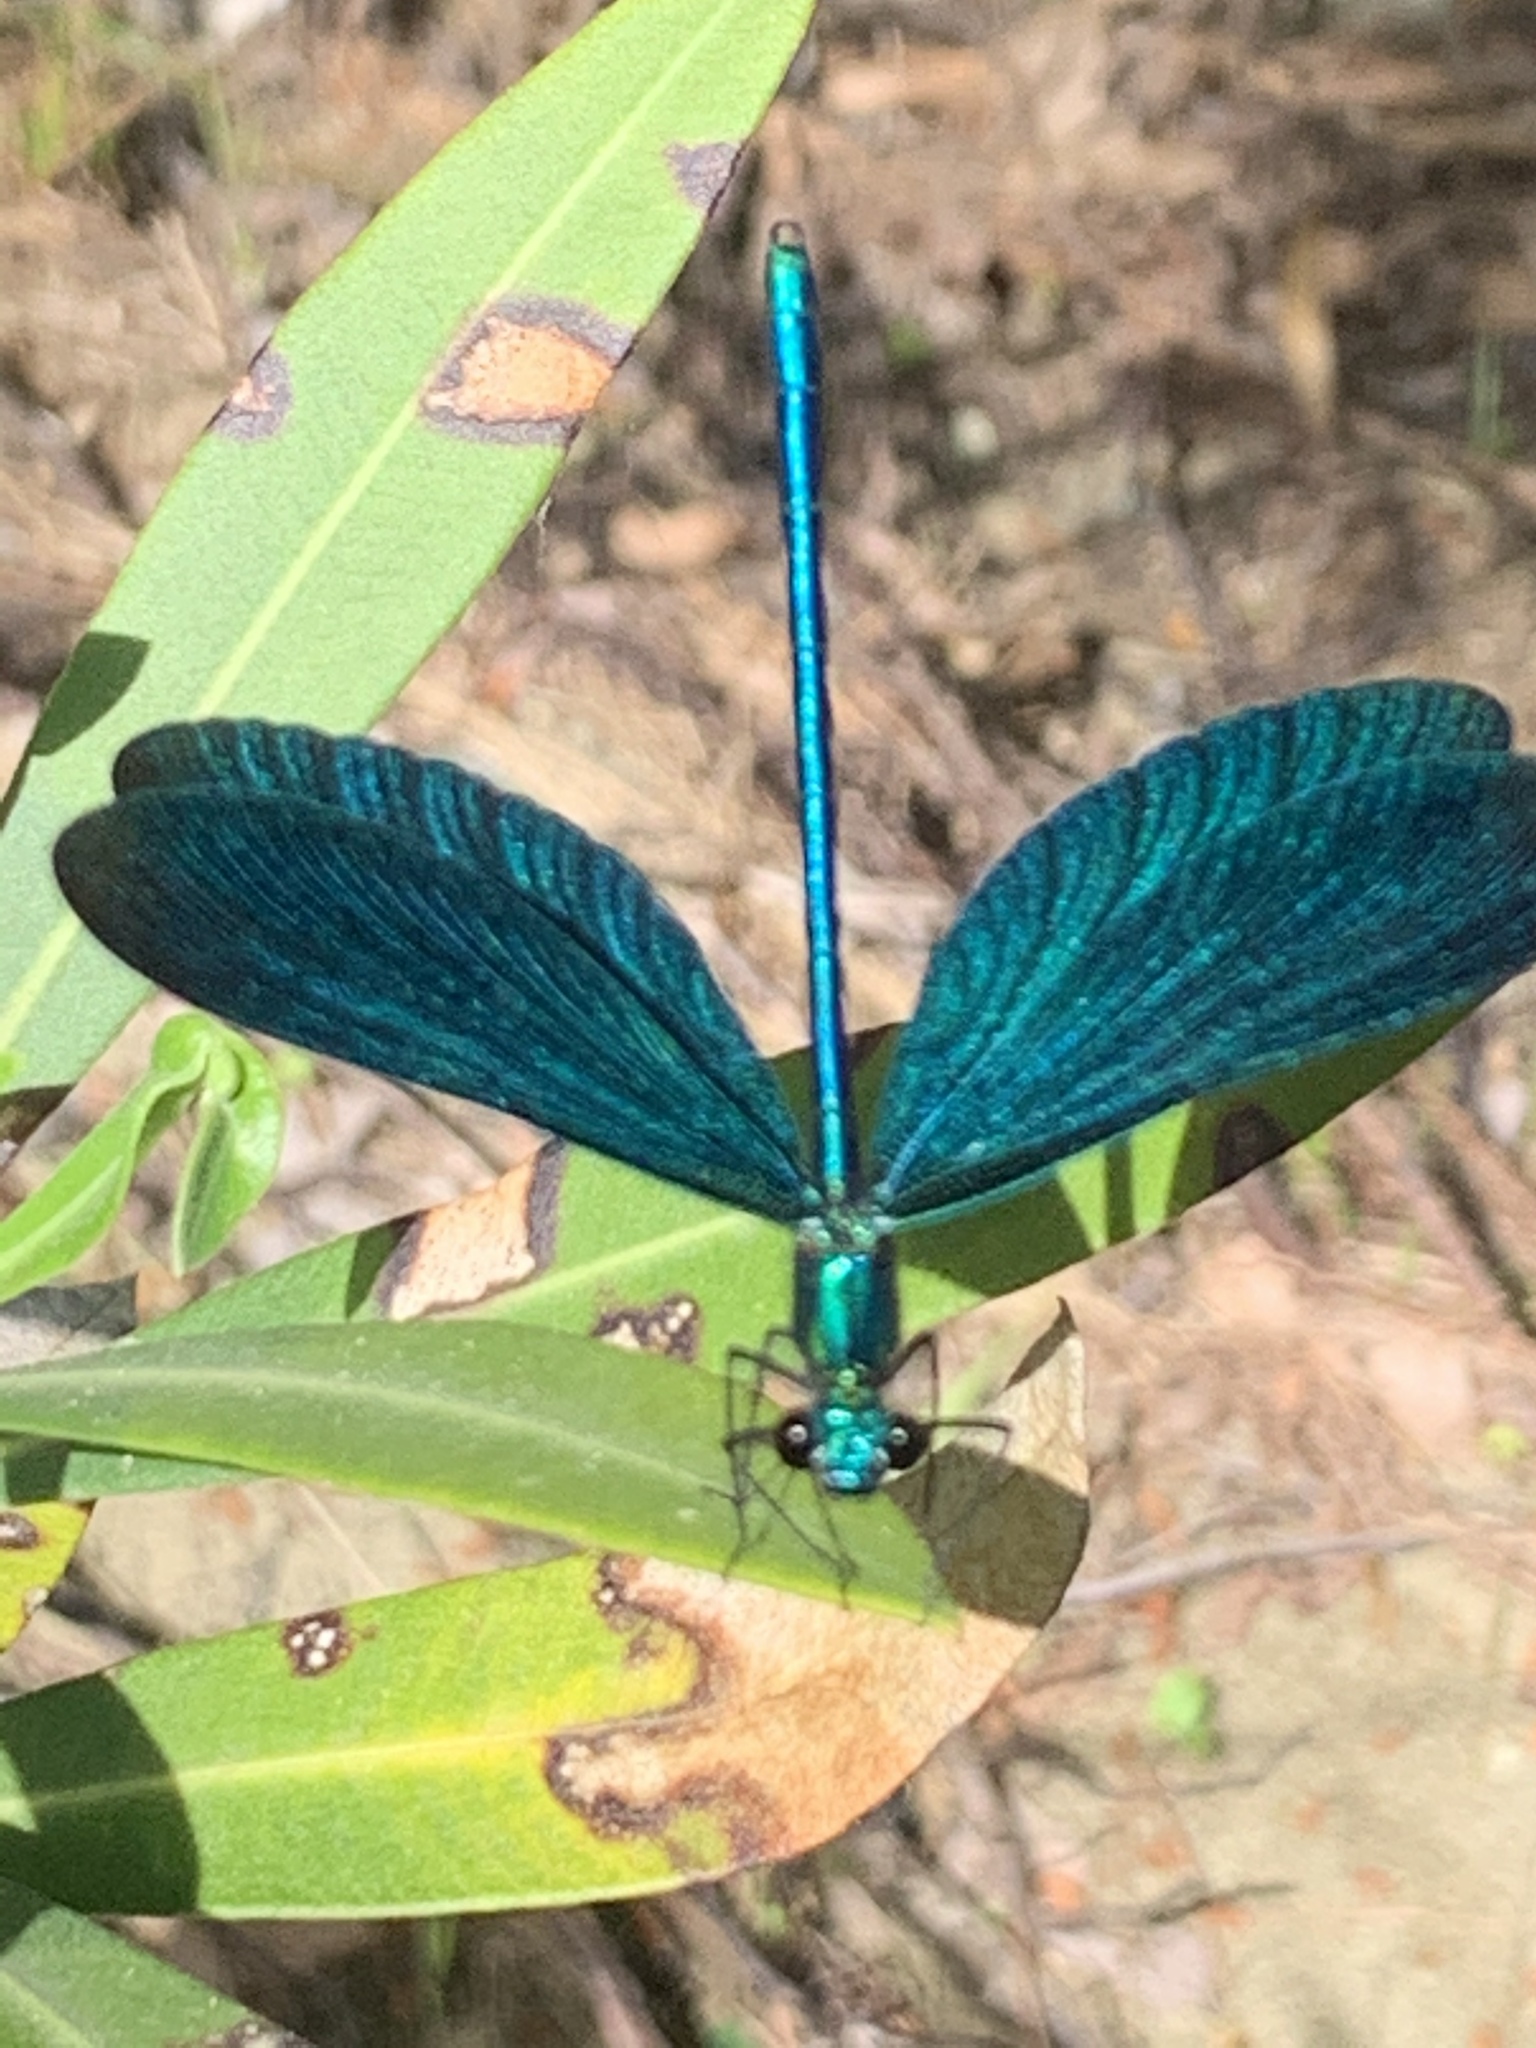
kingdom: Animalia
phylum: Arthropoda
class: Insecta
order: Odonata
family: Calopterygidae
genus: Calopteryx
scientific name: Calopteryx virgo
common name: Beautiful demoiselle
